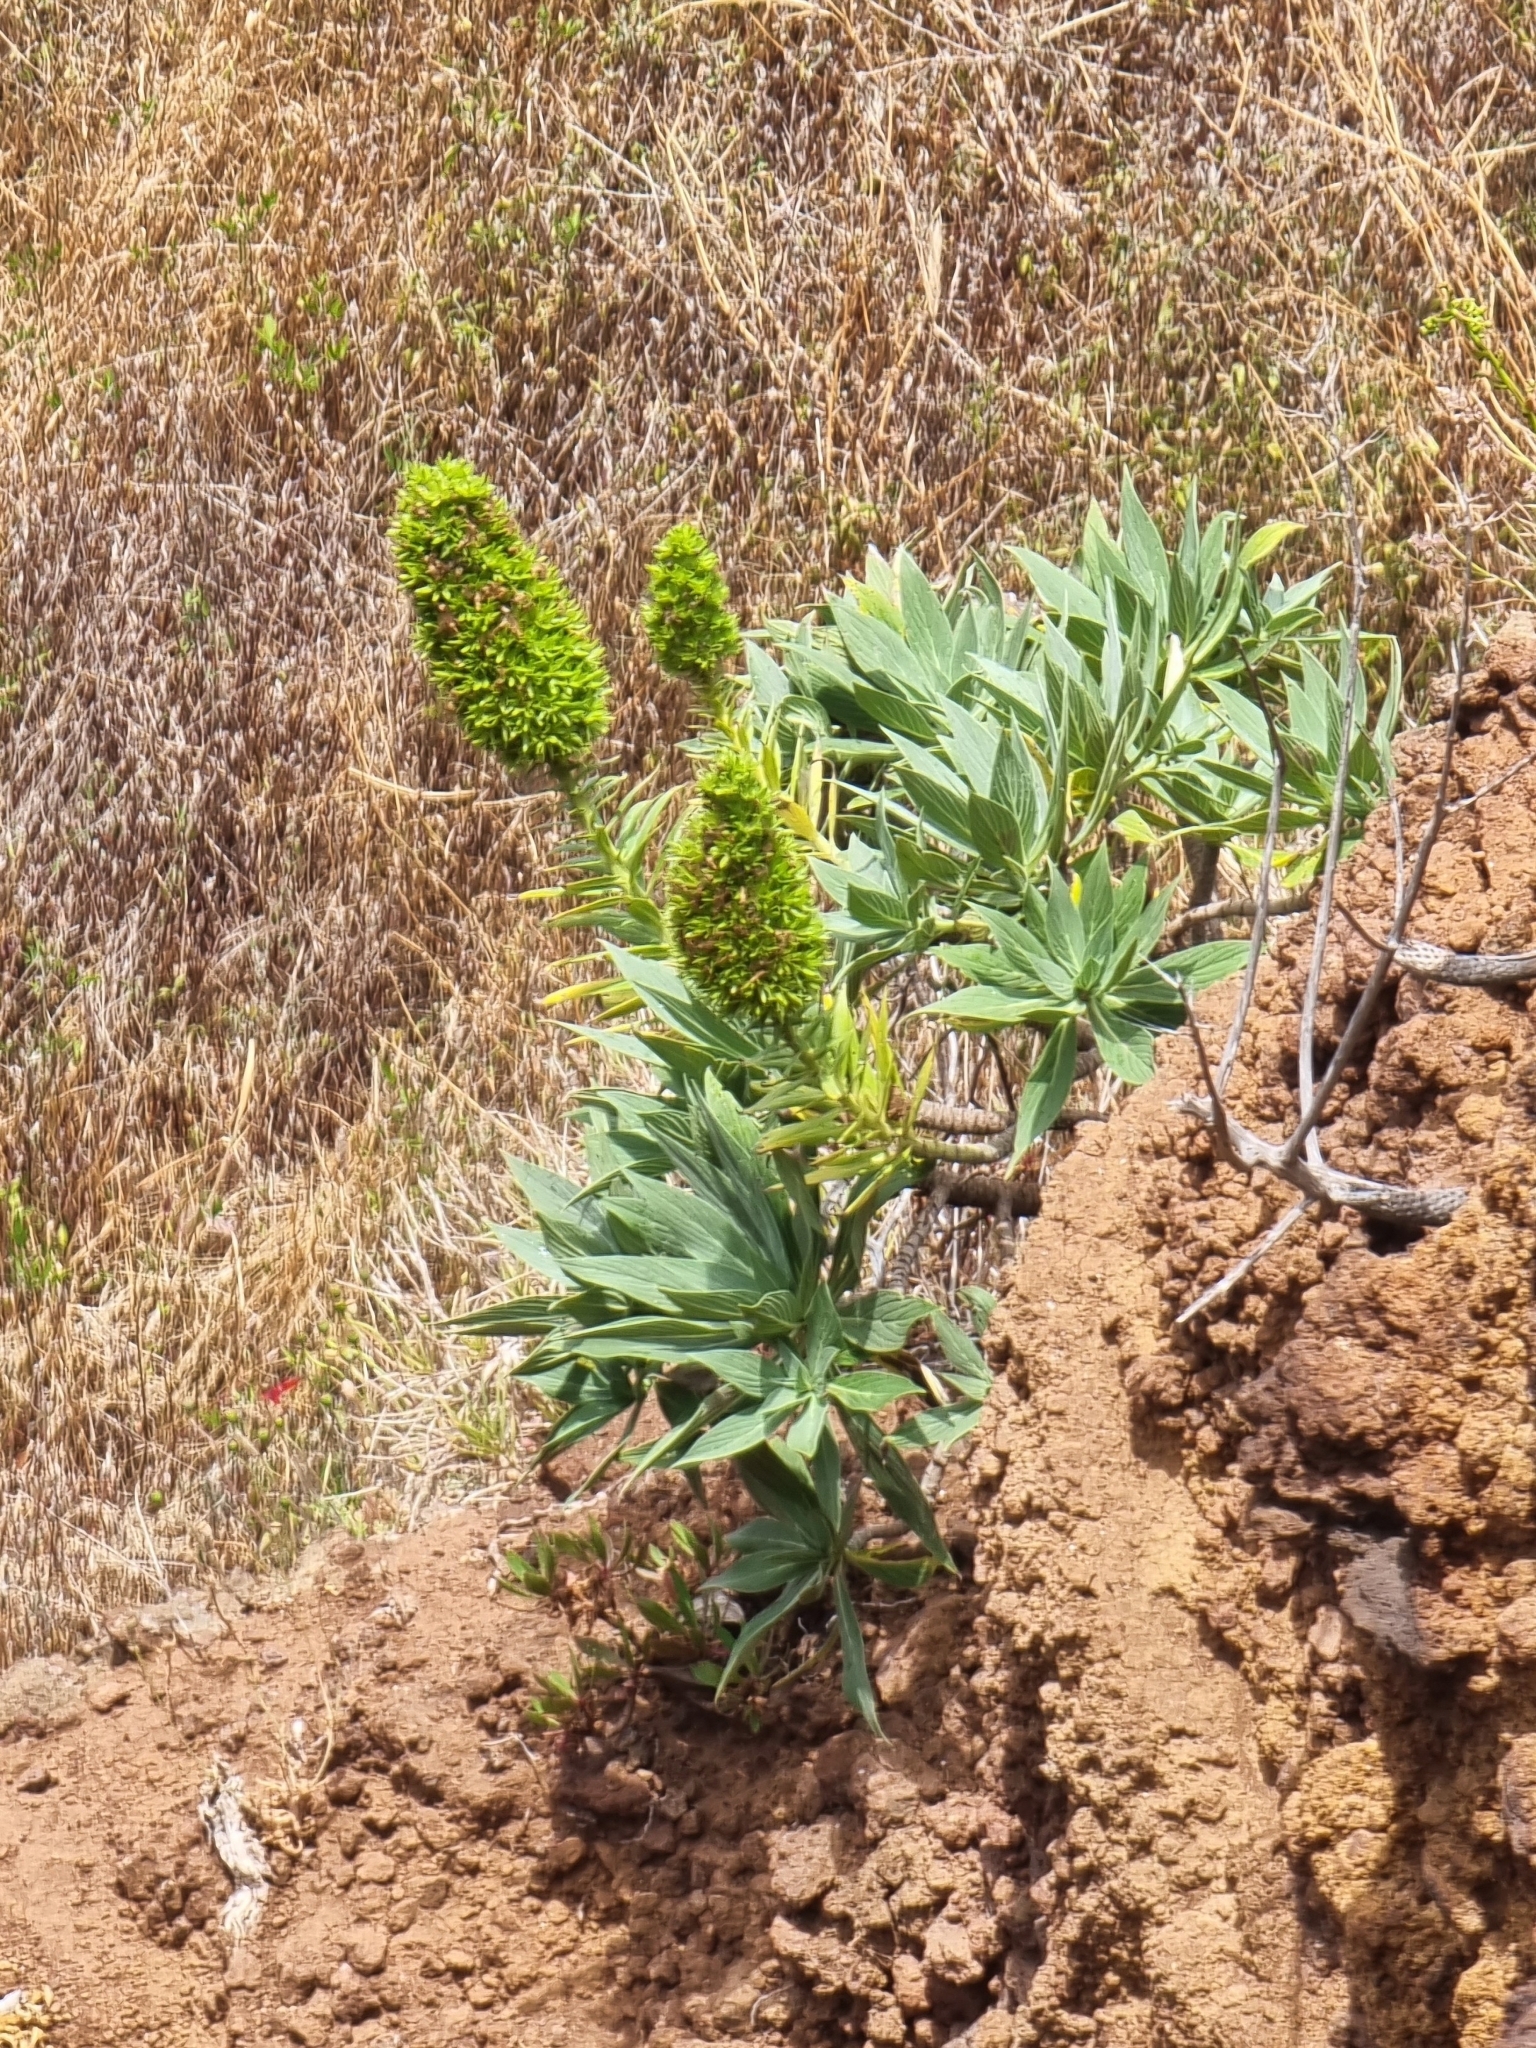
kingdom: Plantae
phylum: Tracheophyta
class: Magnoliopsida
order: Boraginales
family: Boraginaceae
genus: Echium
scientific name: Echium nervosum
